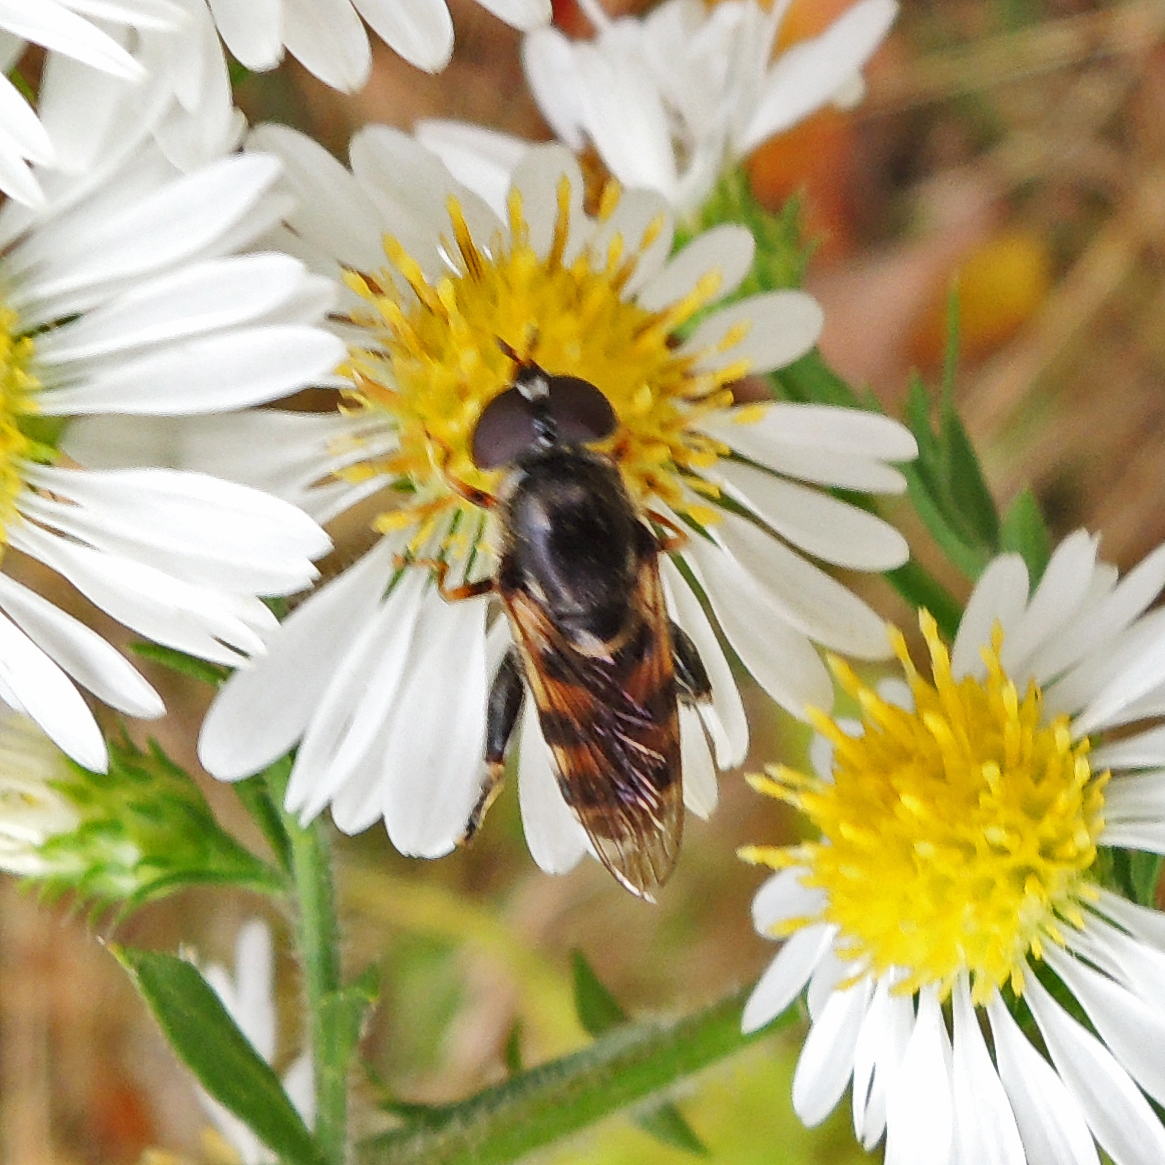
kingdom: Animalia
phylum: Arthropoda
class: Insecta
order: Diptera
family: Syrphidae
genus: Tropidia
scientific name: Tropidia albistylum
